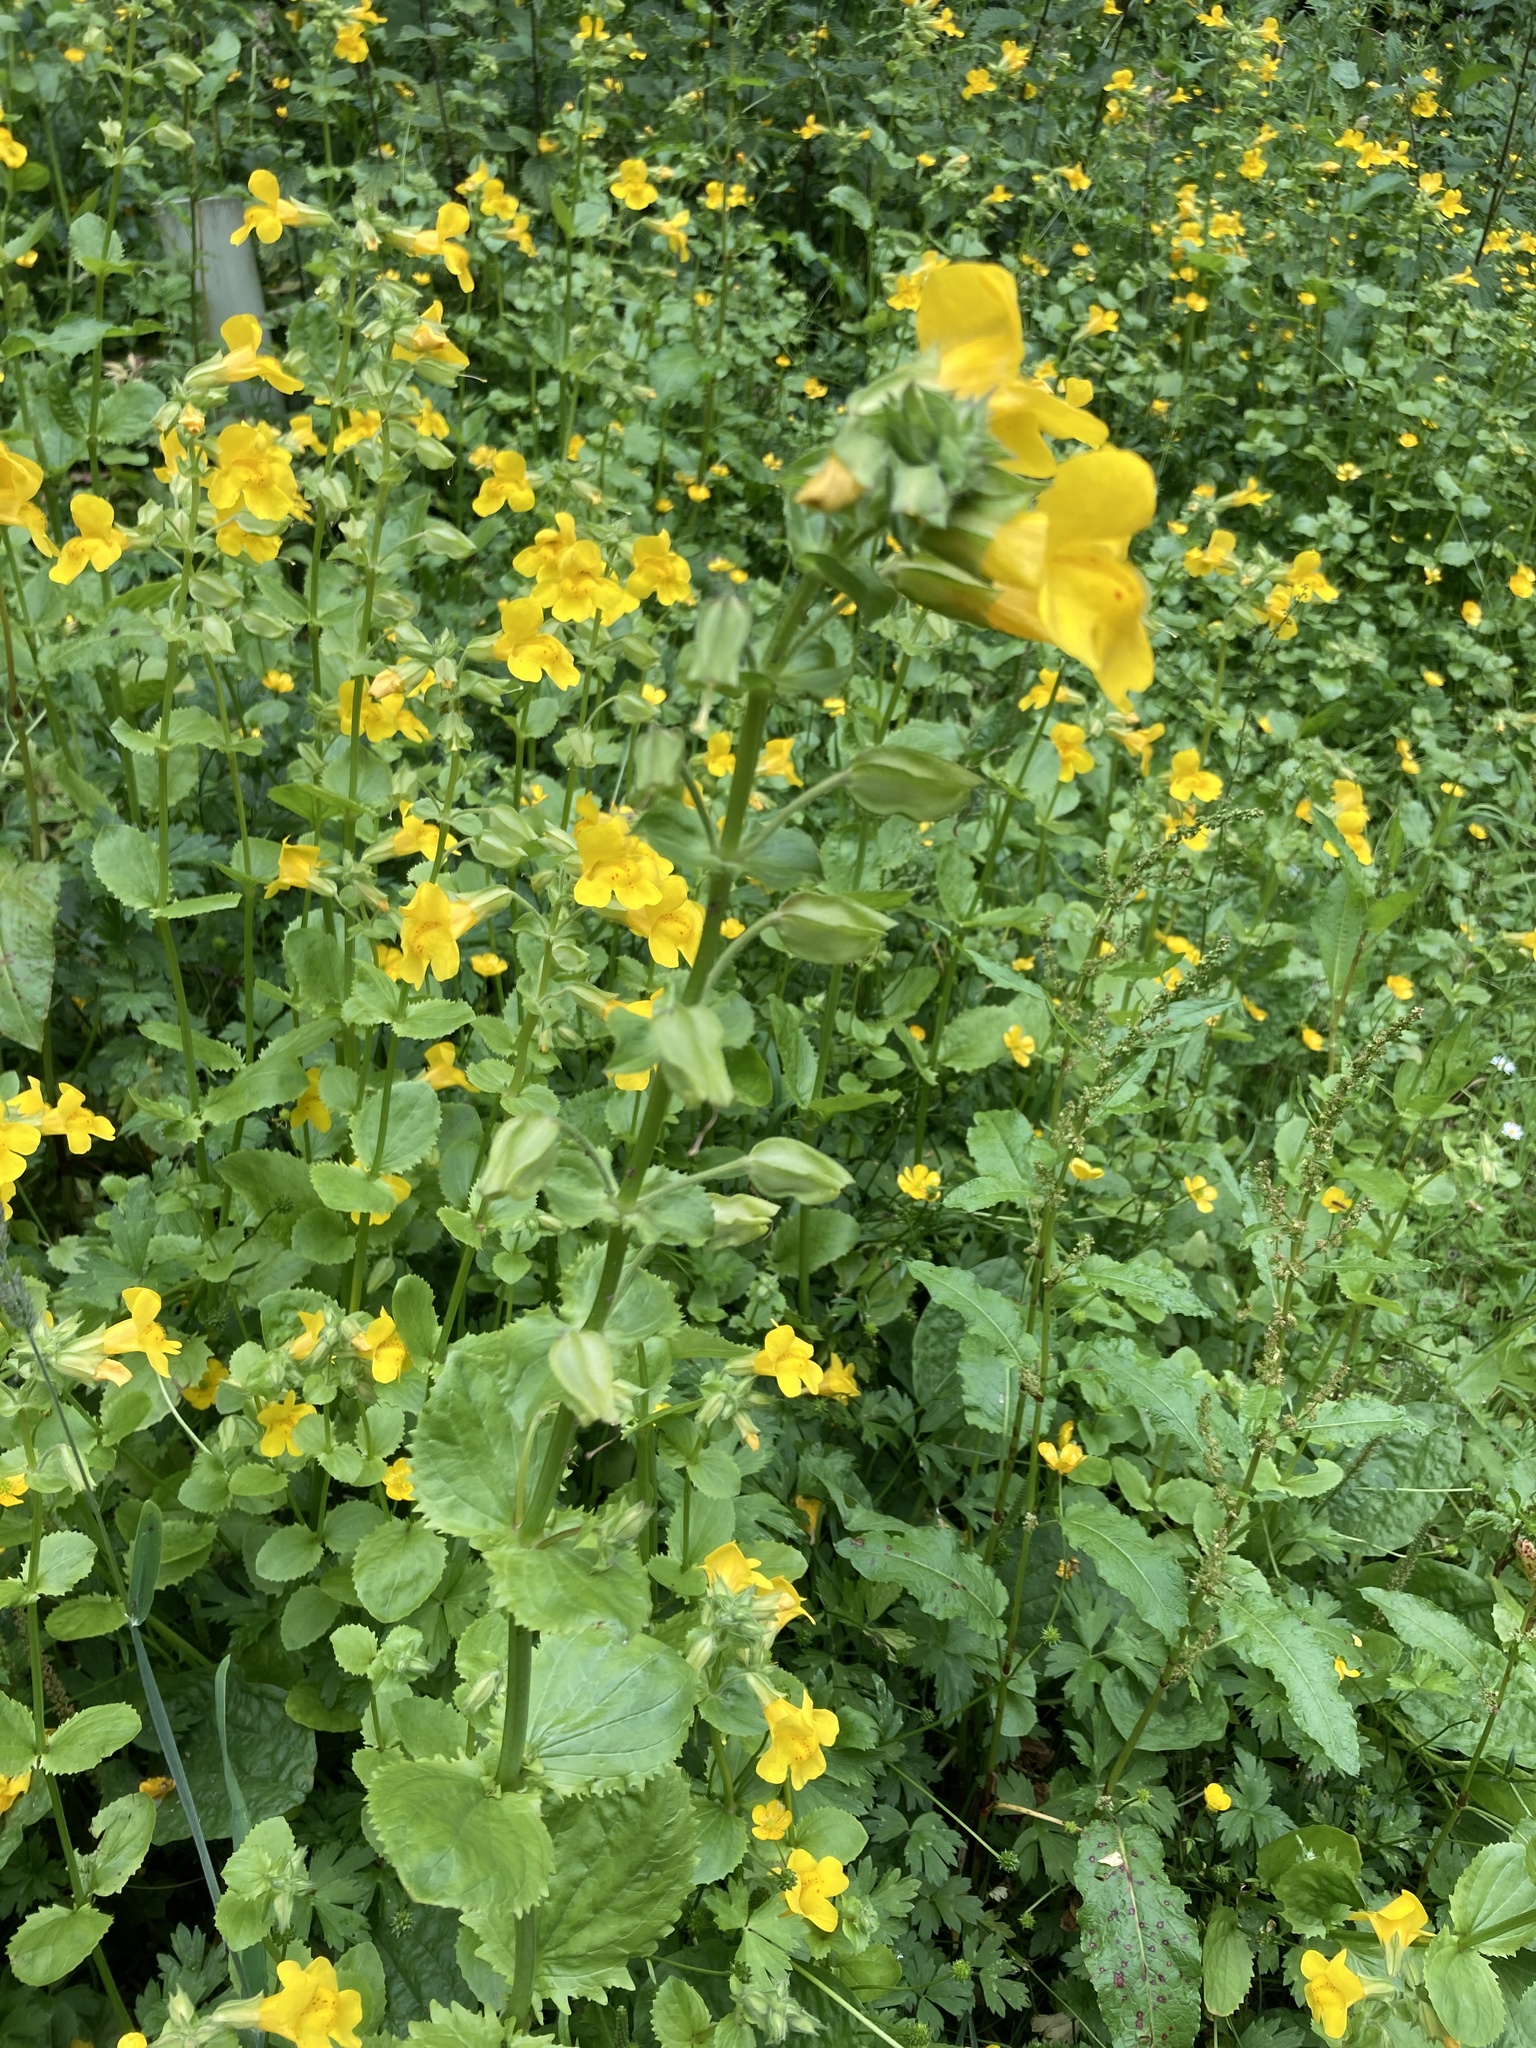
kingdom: Plantae
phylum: Tracheophyta
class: Magnoliopsida
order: Lamiales
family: Phrymaceae
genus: Erythranthe
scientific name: Erythranthe guttata
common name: Monkeyflower
